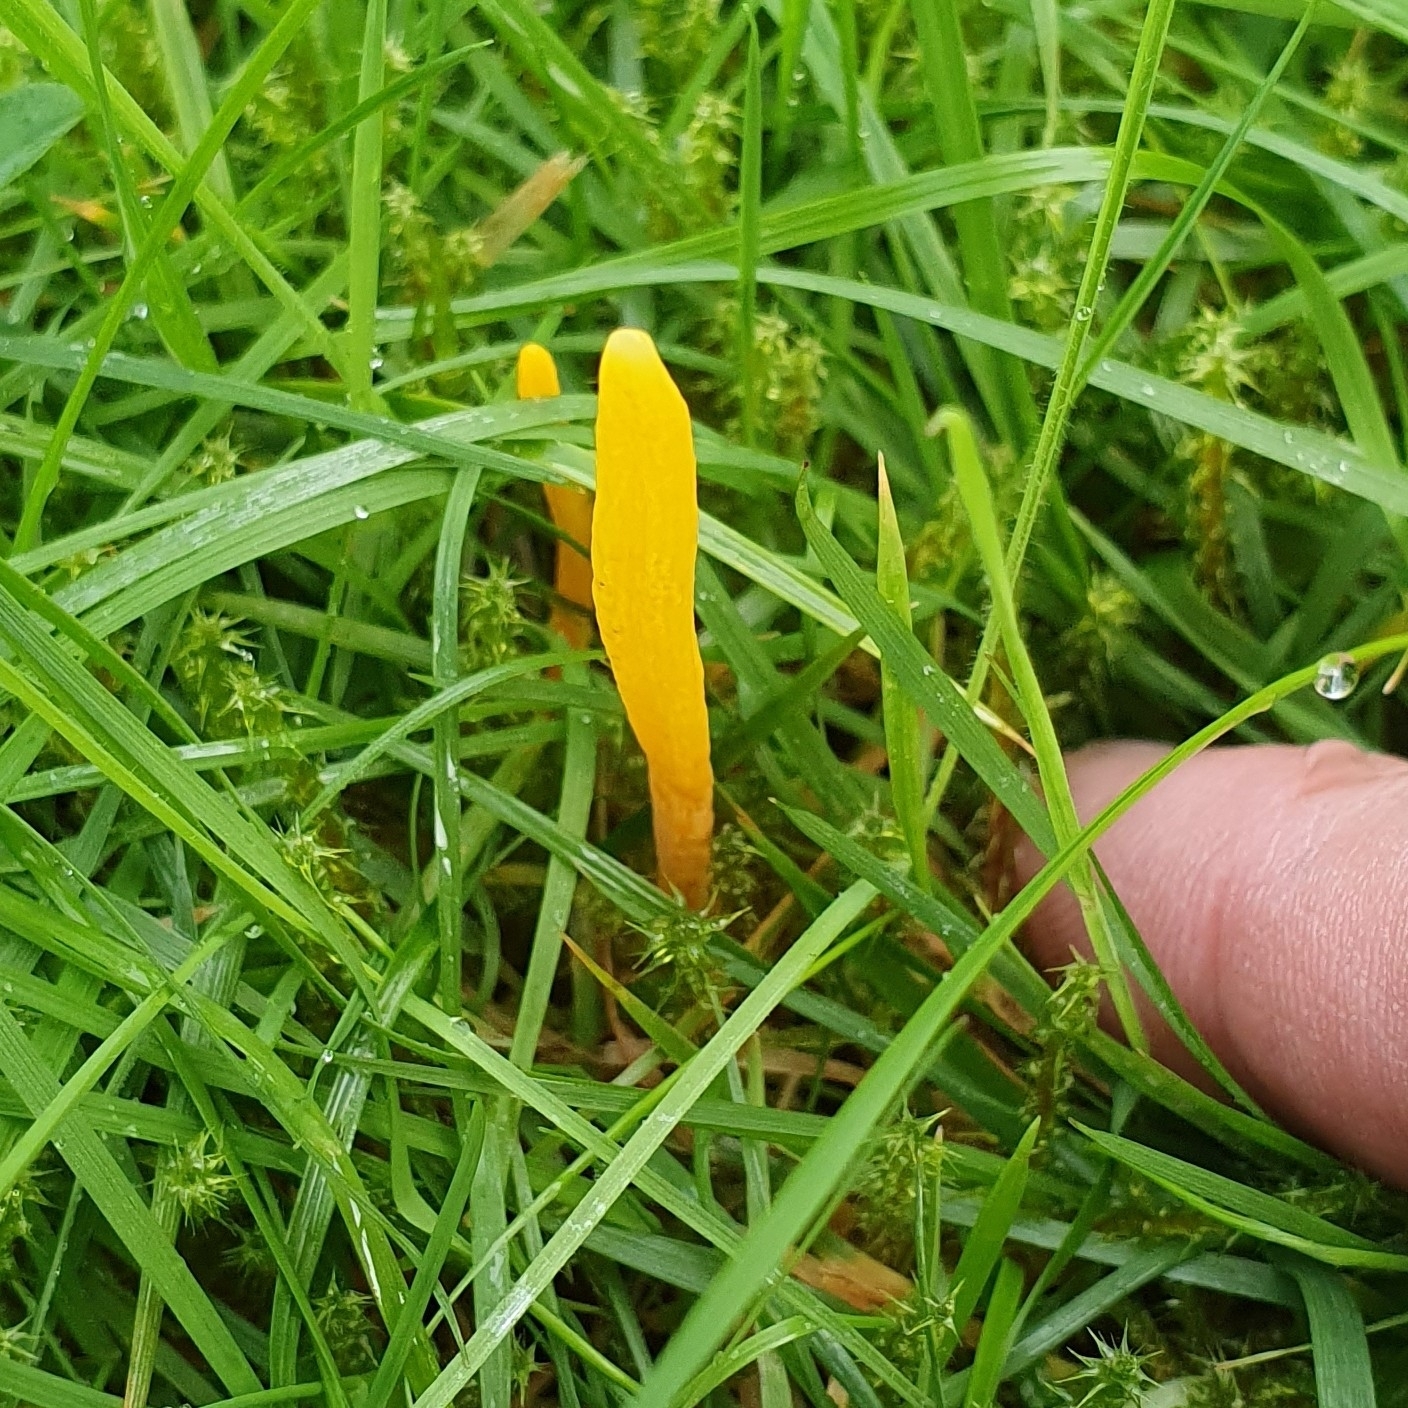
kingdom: Fungi
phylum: Basidiomycota
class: Agaricomycetes
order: Agaricales
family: Clavariaceae
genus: Clavulinopsis
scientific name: Clavulinopsis helvola
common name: Yellow club
